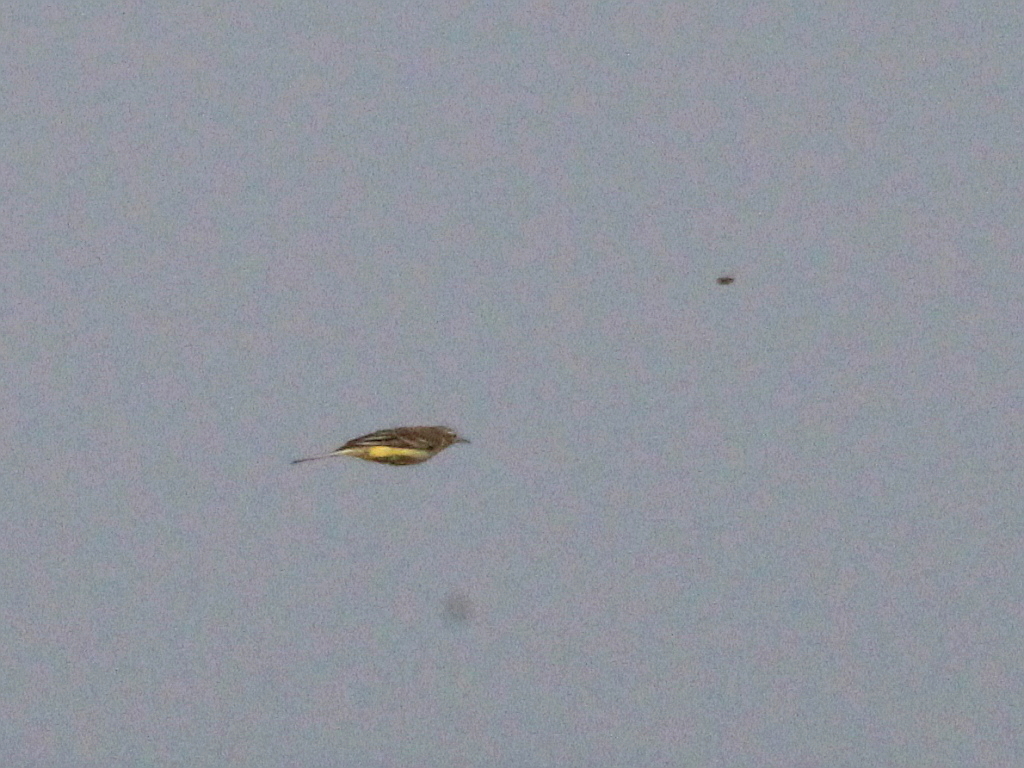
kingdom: Animalia
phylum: Chordata
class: Aves
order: Passeriformes
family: Motacillidae
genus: Motacilla
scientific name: Motacilla flava
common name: Western yellow wagtail
